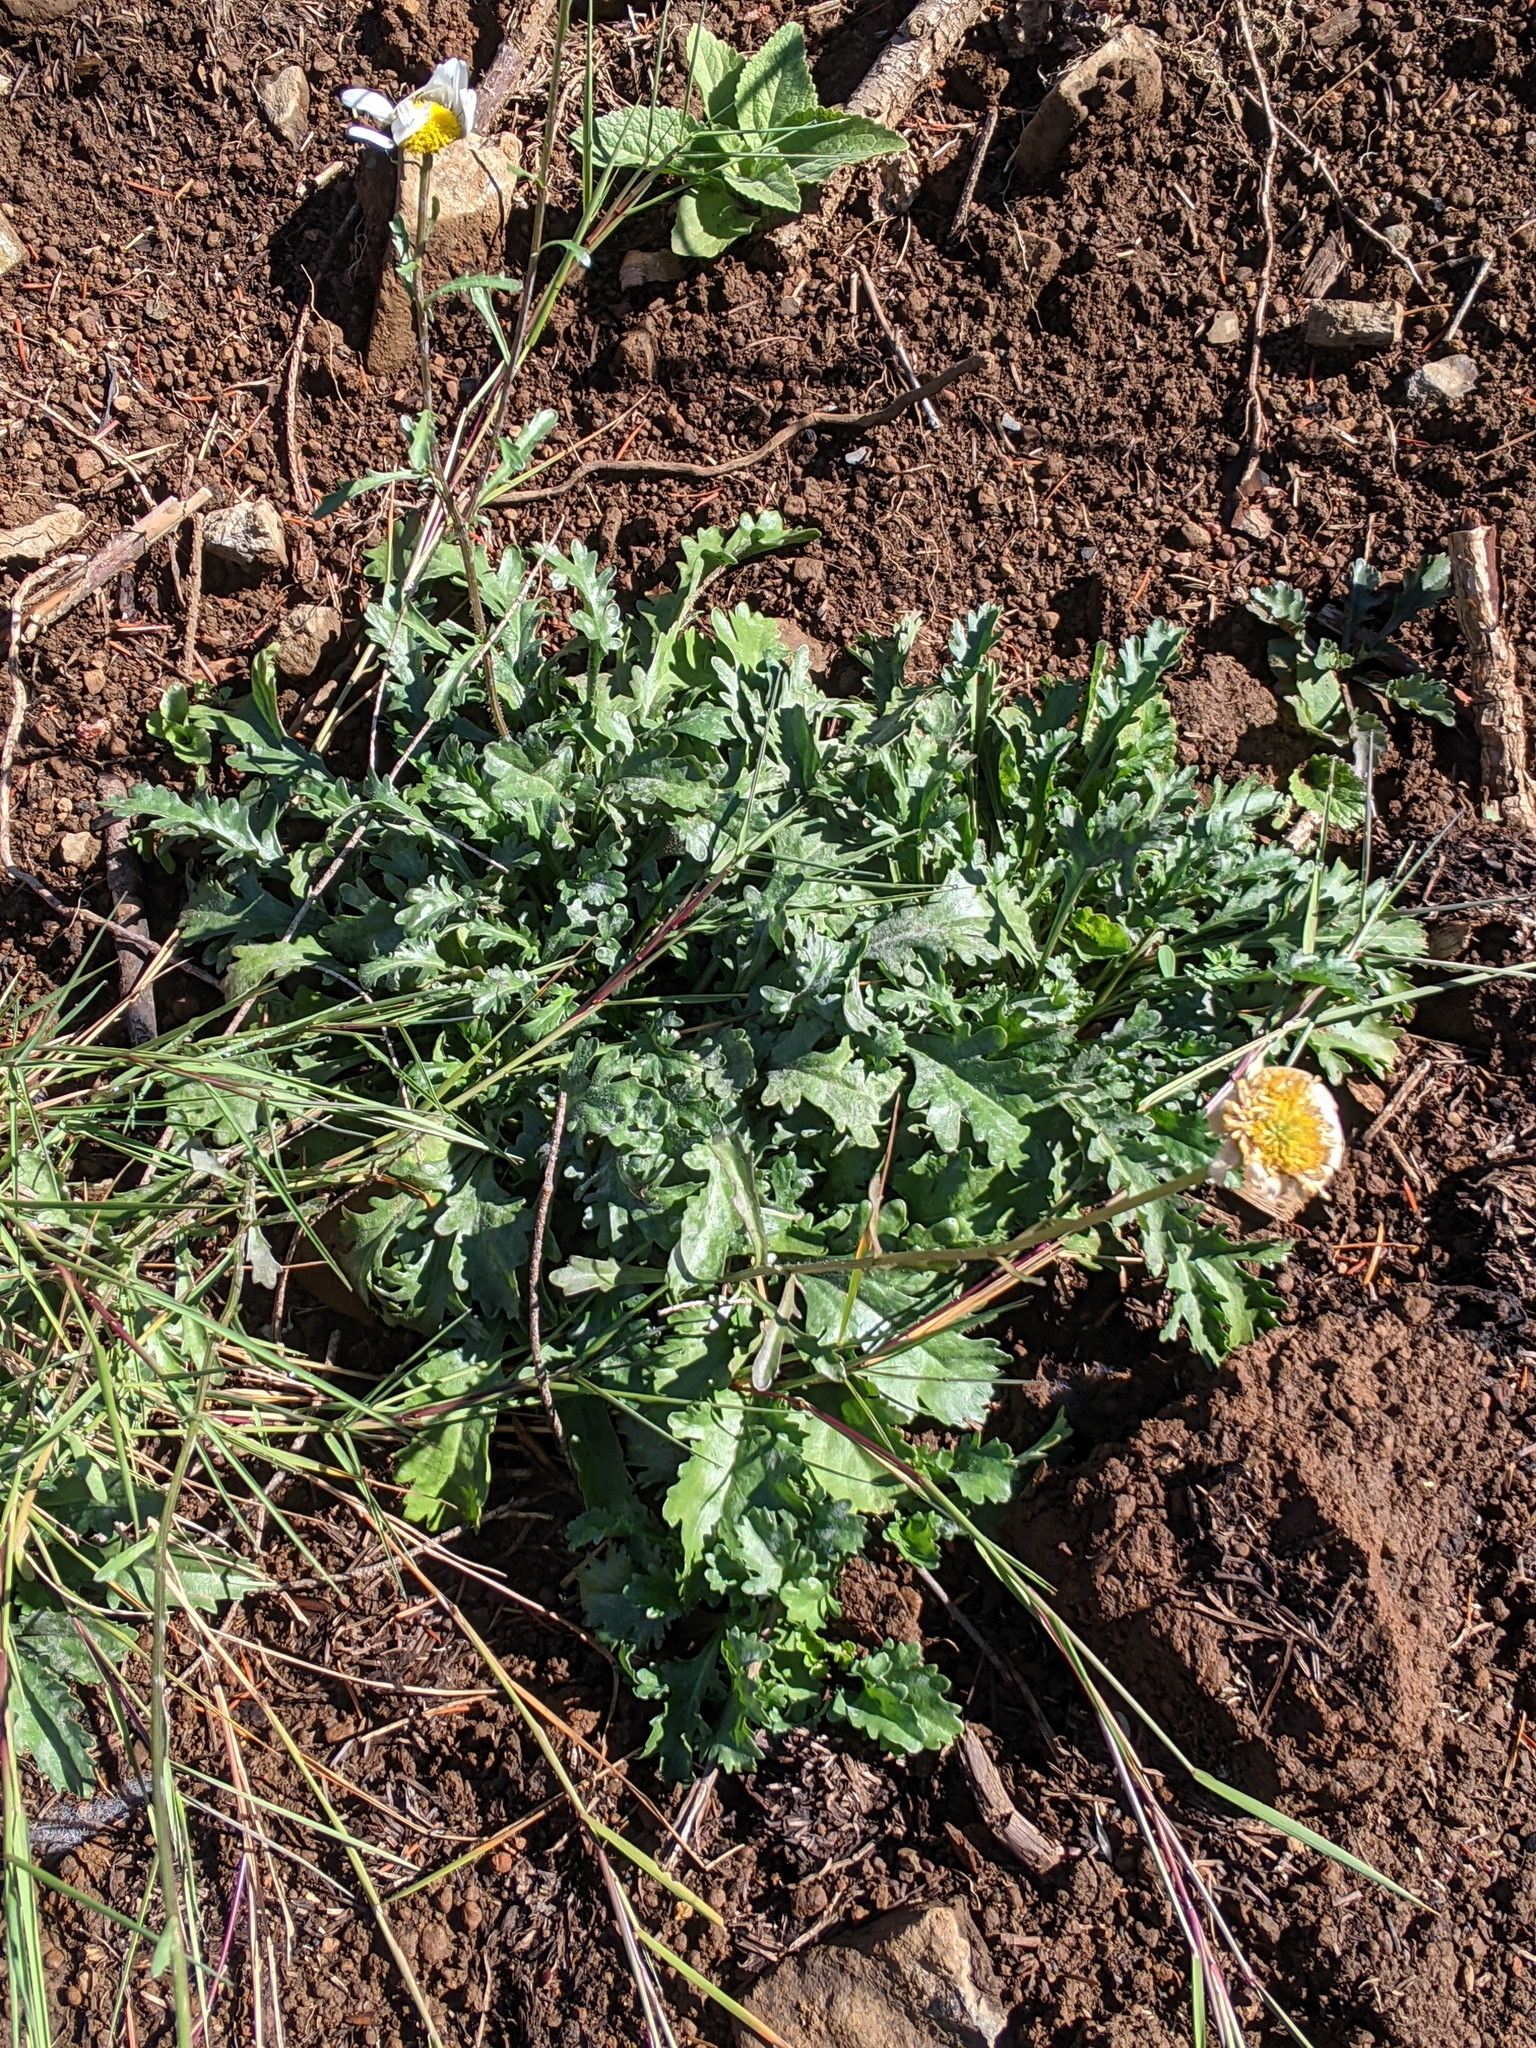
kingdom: Plantae
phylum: Tracheophyta
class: Magnoliopsida
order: Asterales
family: Asteraceae
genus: Leucanthemum
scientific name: Leucanthemum vulgare
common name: Oxeye daisy
